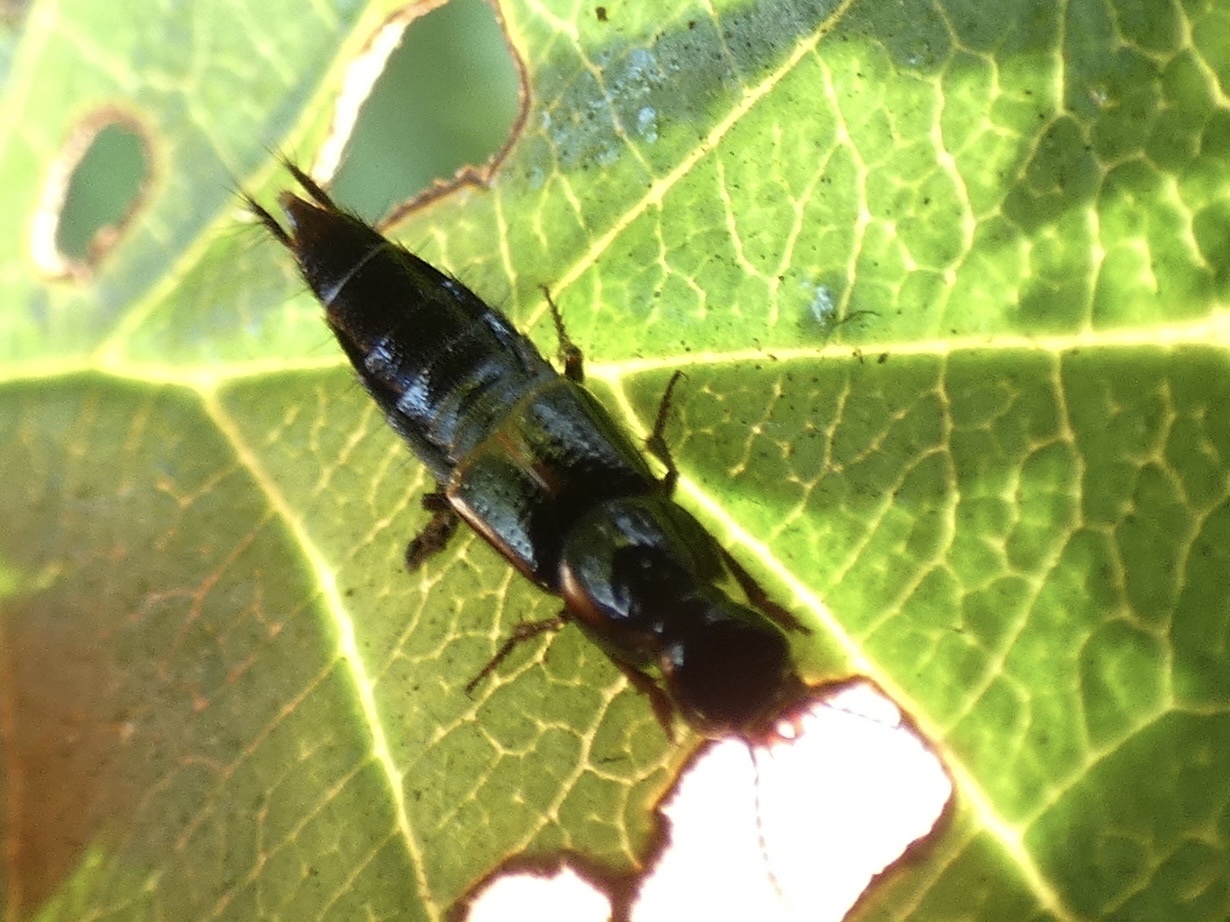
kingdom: Animalia
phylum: Arthropoda
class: Insecta
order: Coleoptera
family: Staphylinidae
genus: Quedius
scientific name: Quedius cinctus
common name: Large rove beetle
